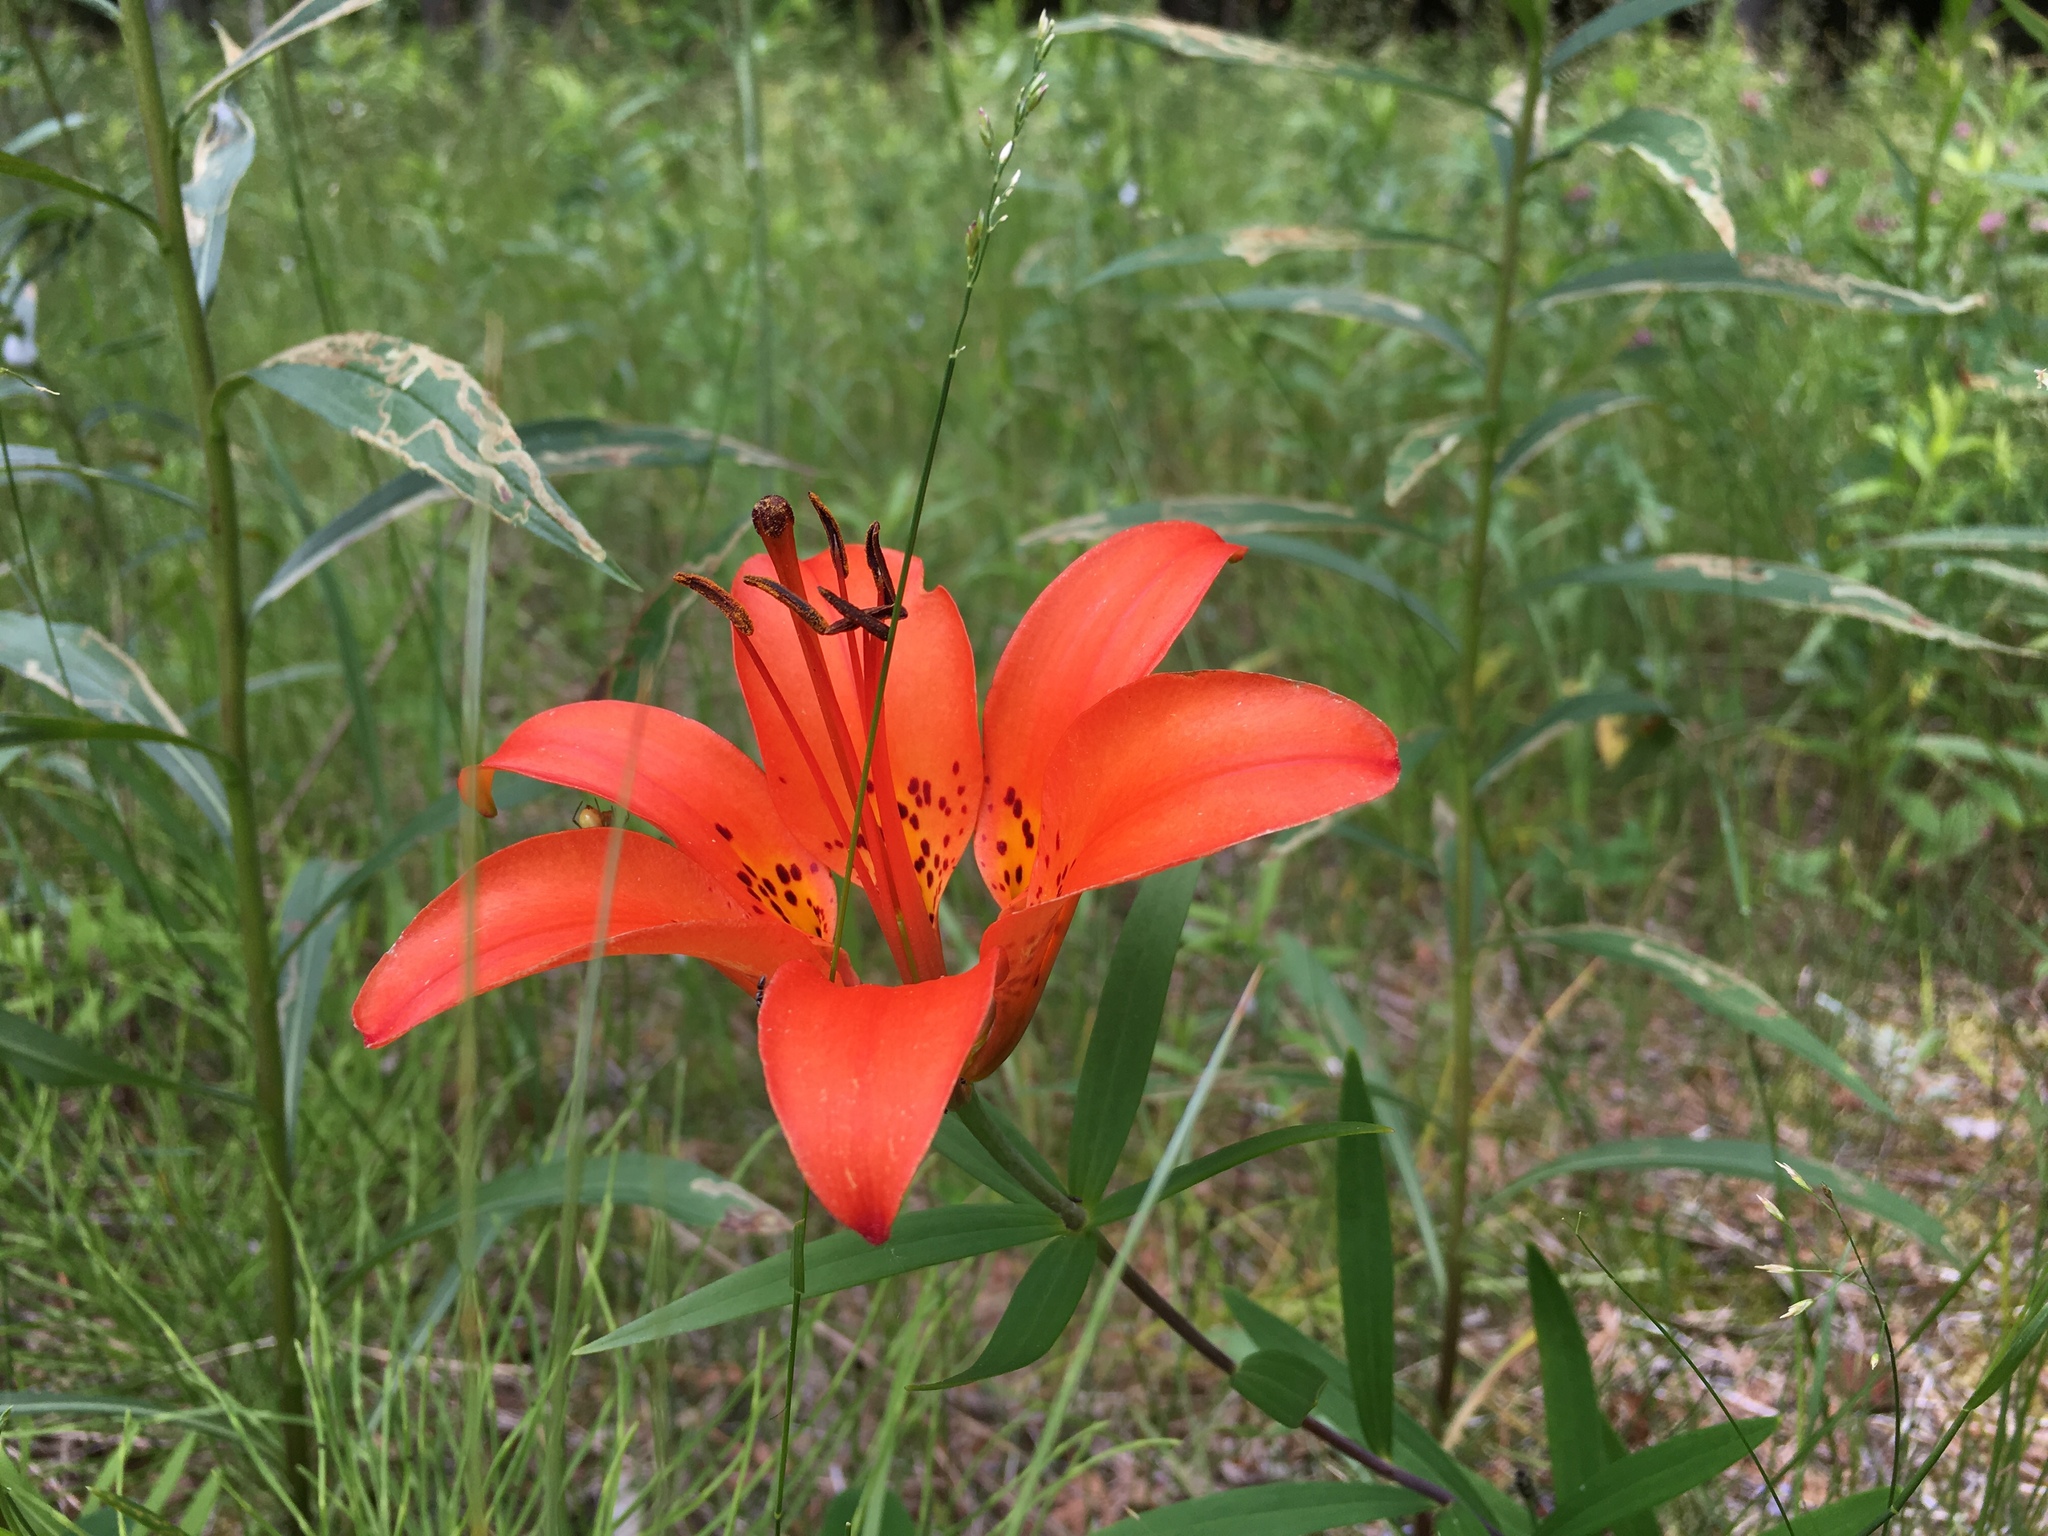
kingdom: Plantae
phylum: Tracheophyta
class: Liliopsida
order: Liliales
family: Liliaceae
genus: Lilium
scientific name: Lilium philadelphicum
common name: Red lily
